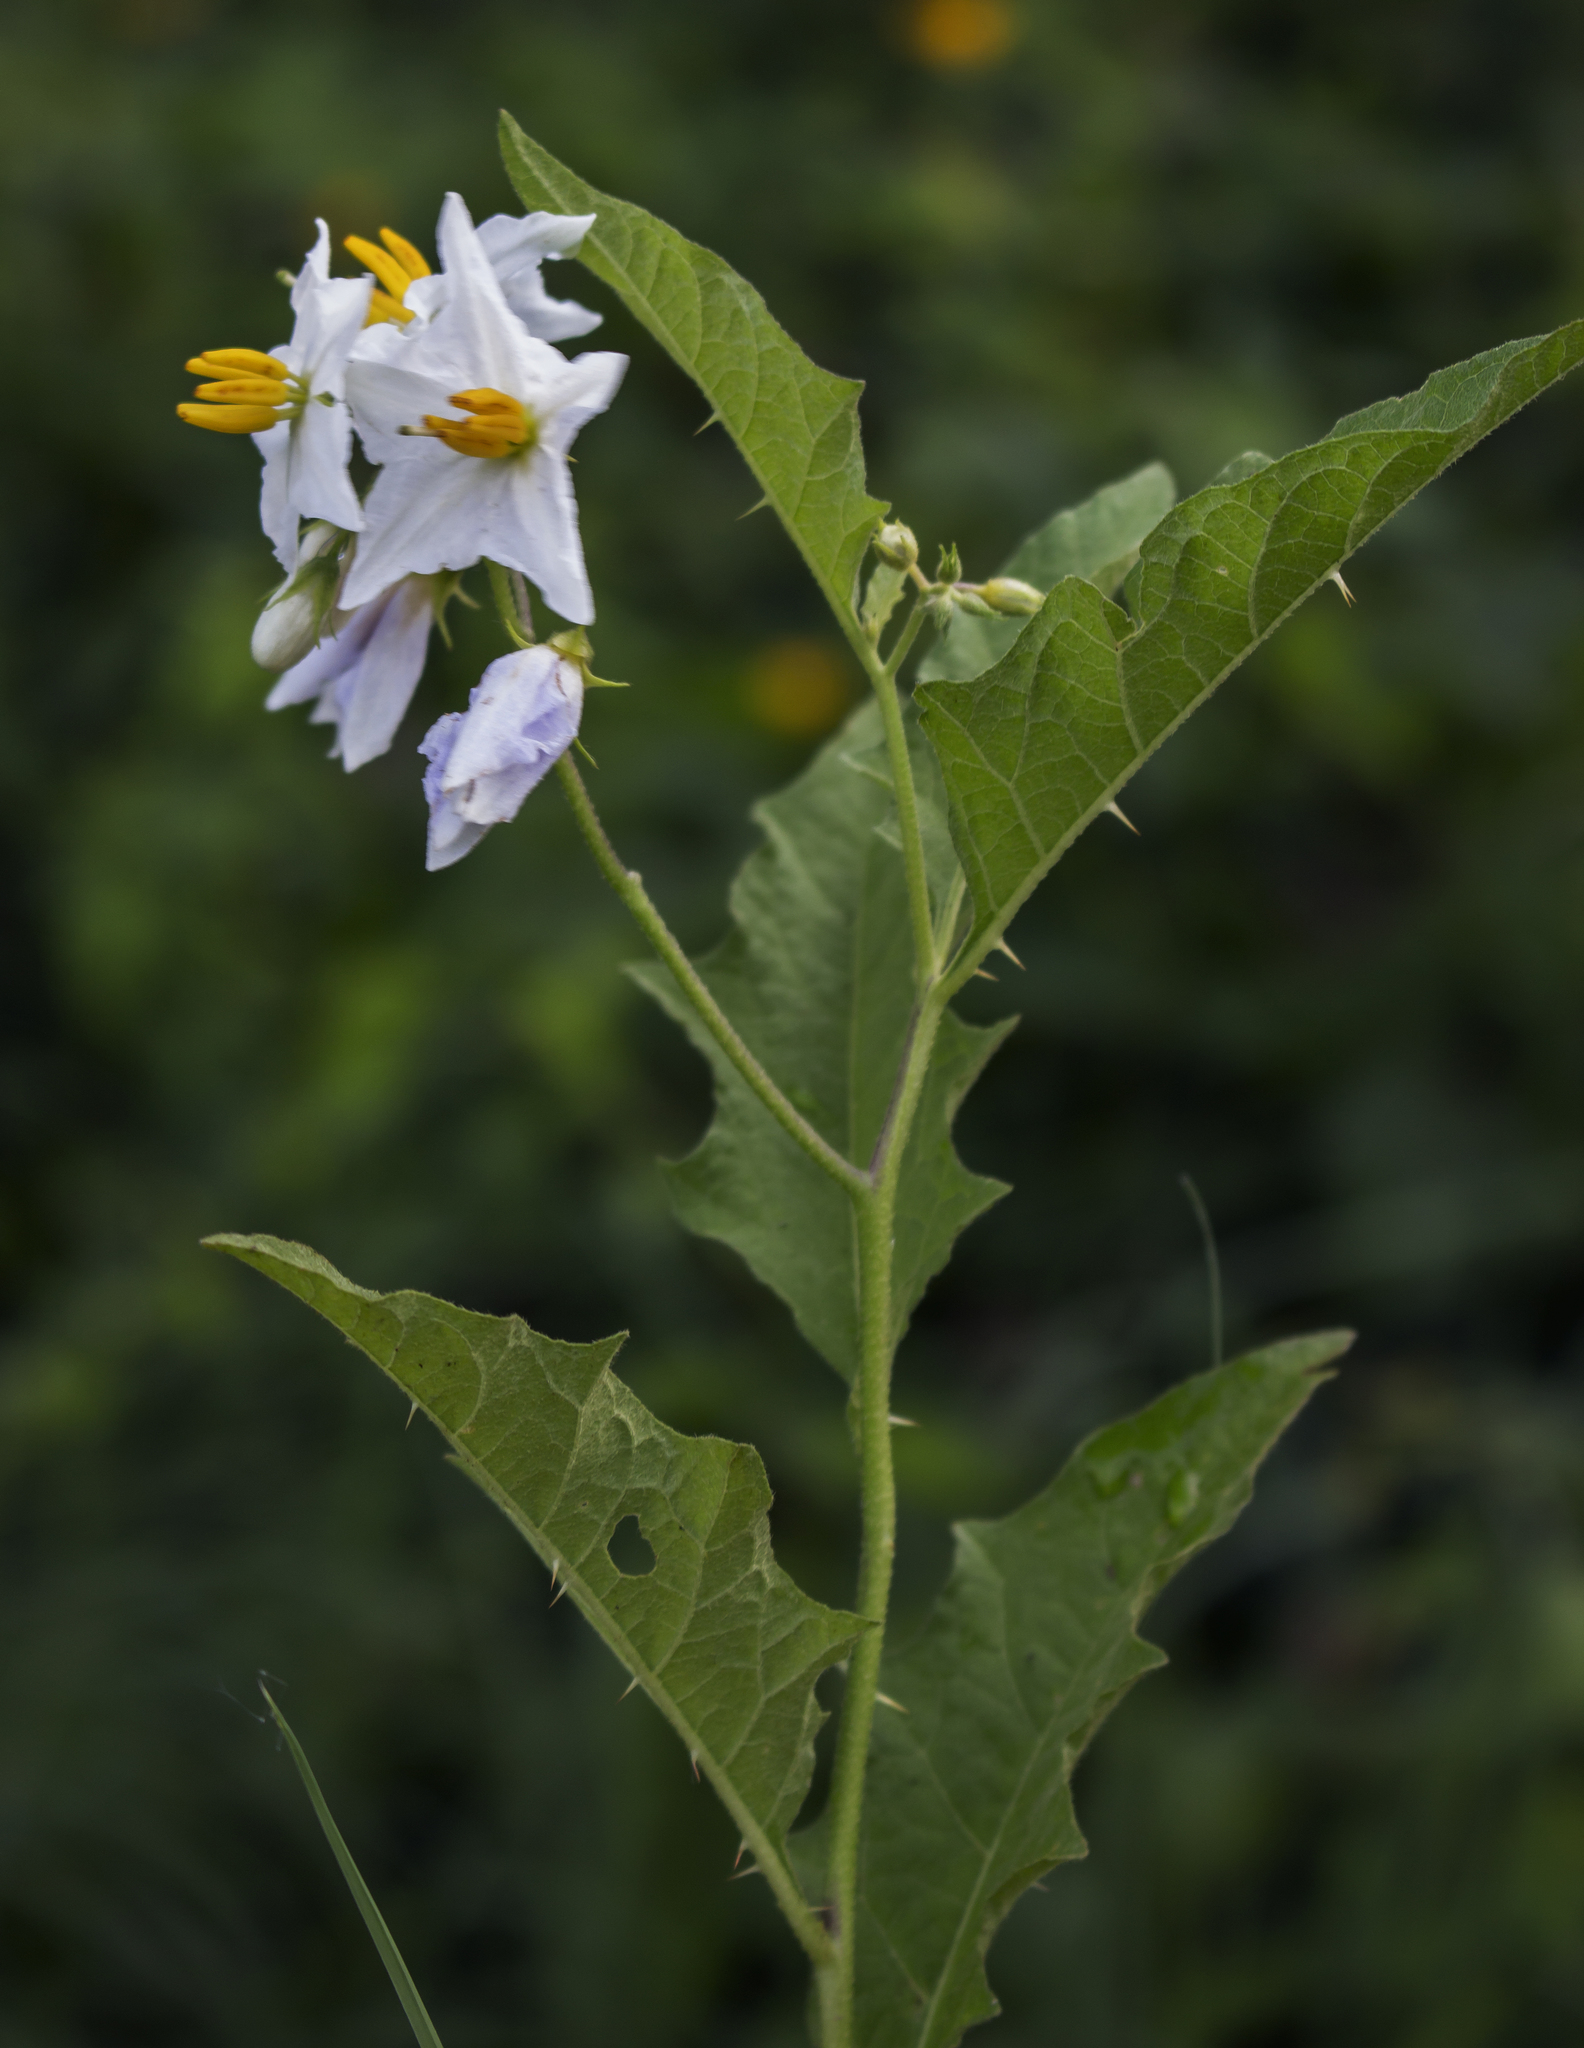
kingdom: Plantae
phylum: Tracheophyta
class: Magnoliopsida
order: Solanales
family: Solanaceae
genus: Solanum
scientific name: Solanum carolinense
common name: Horse-nettle
